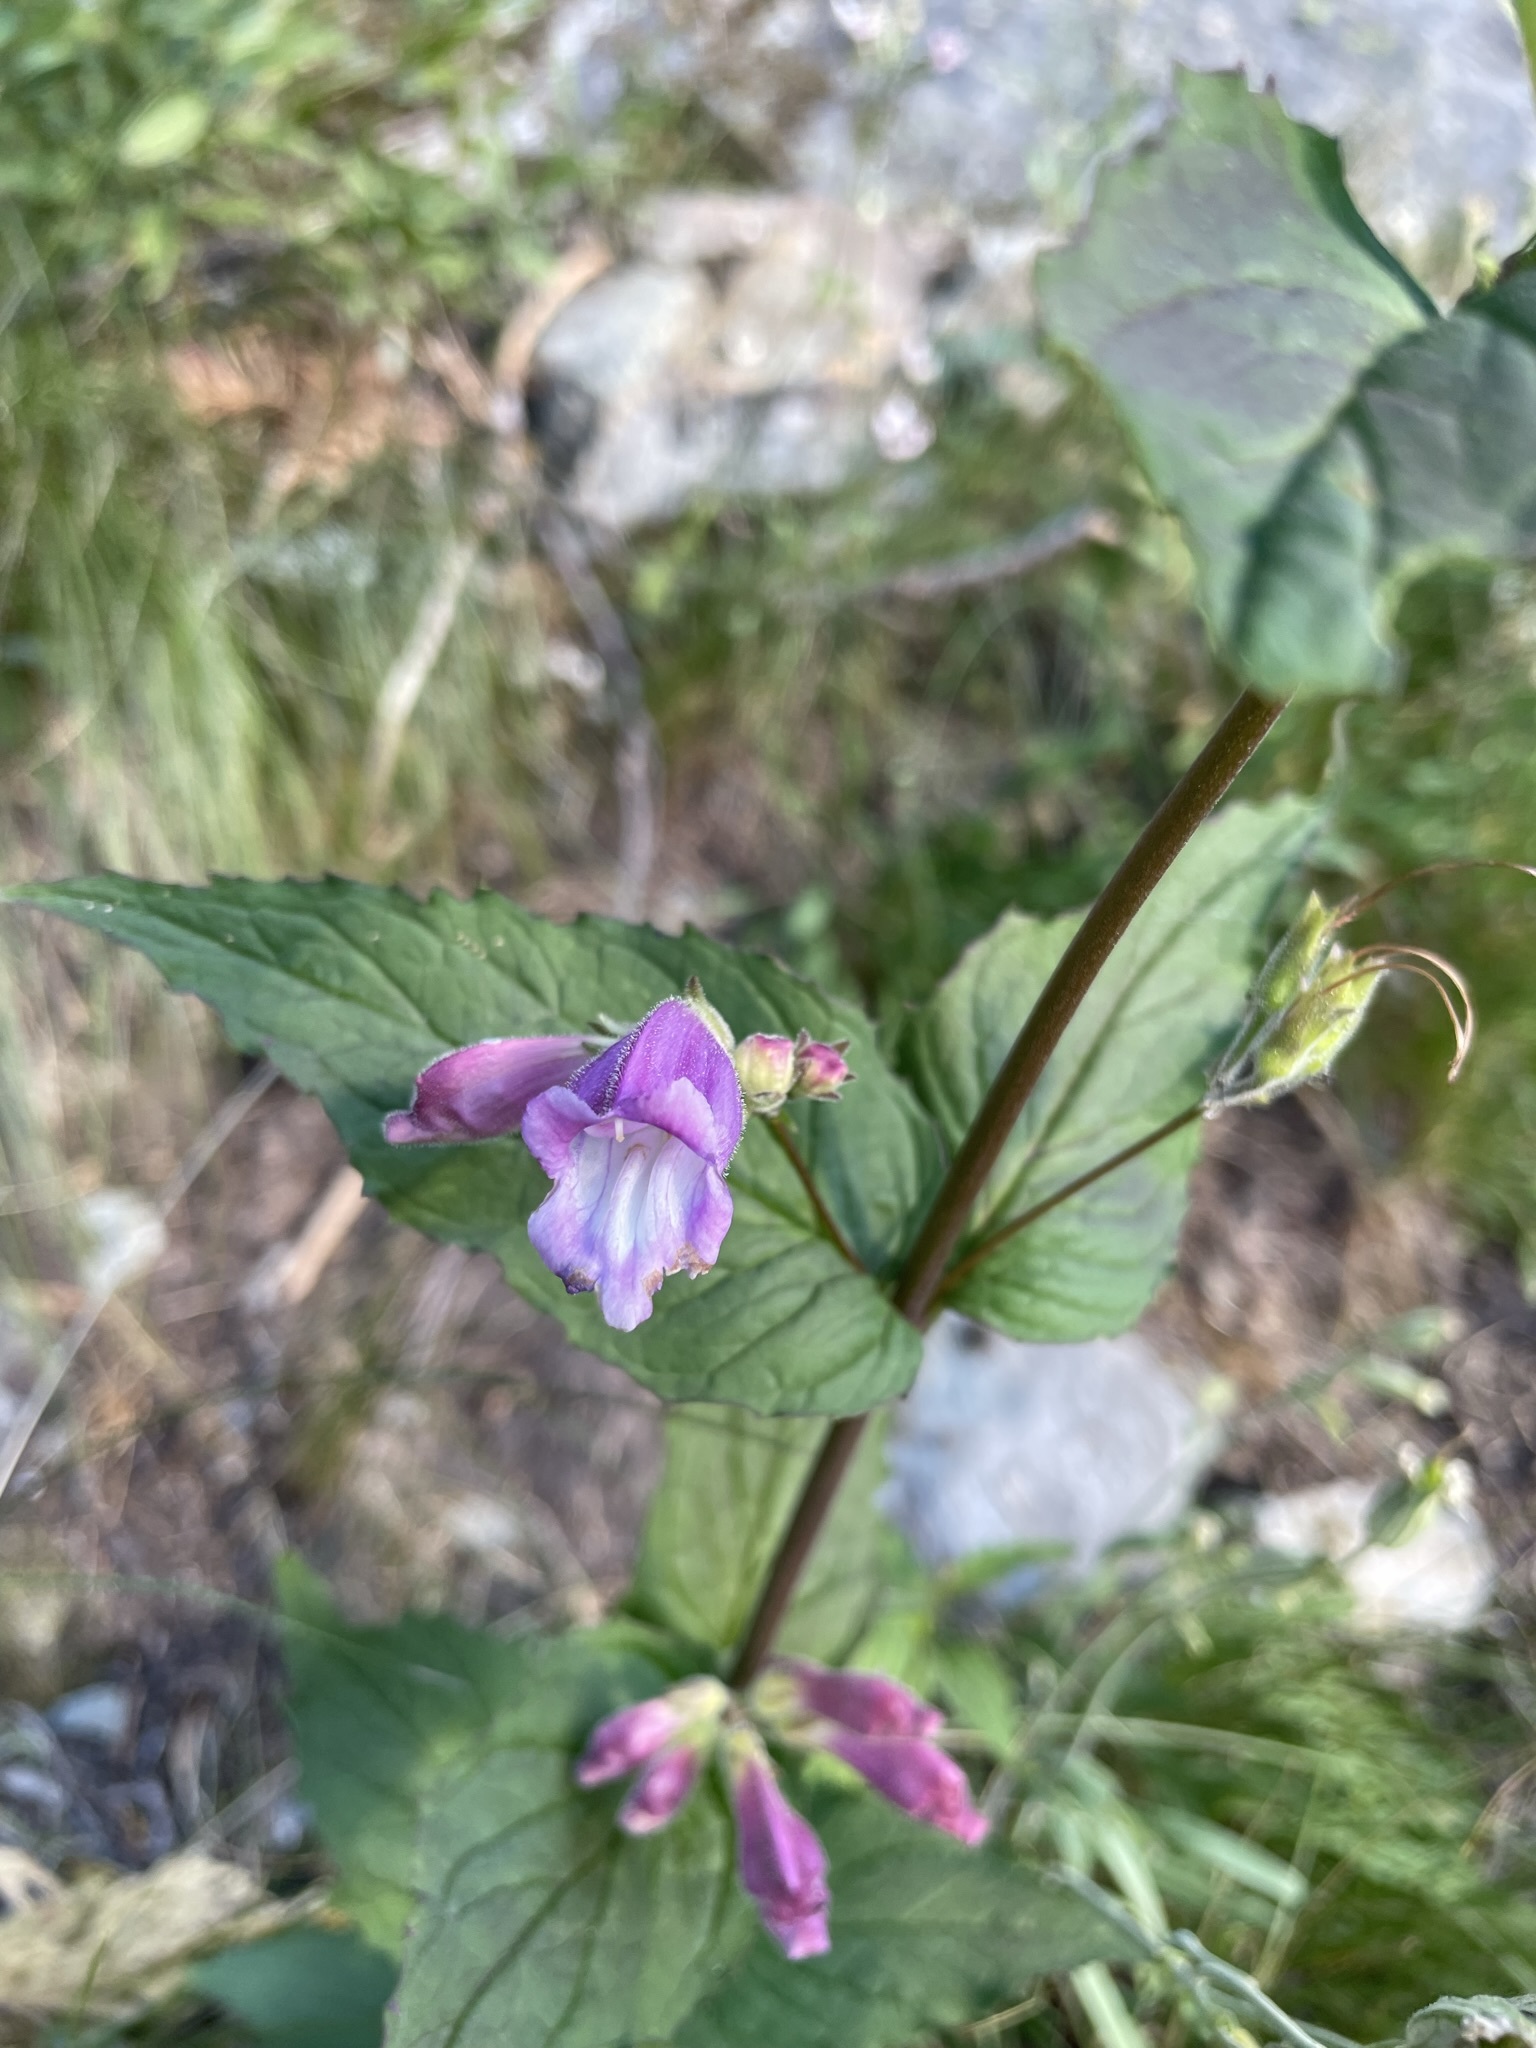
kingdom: Plantae
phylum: Tracheophyta
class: Magnoliopsida
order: Lamiales
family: Plantaginaceae
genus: Nothochelone
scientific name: Nothochelone nemorosa
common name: Woodland beardtongue
